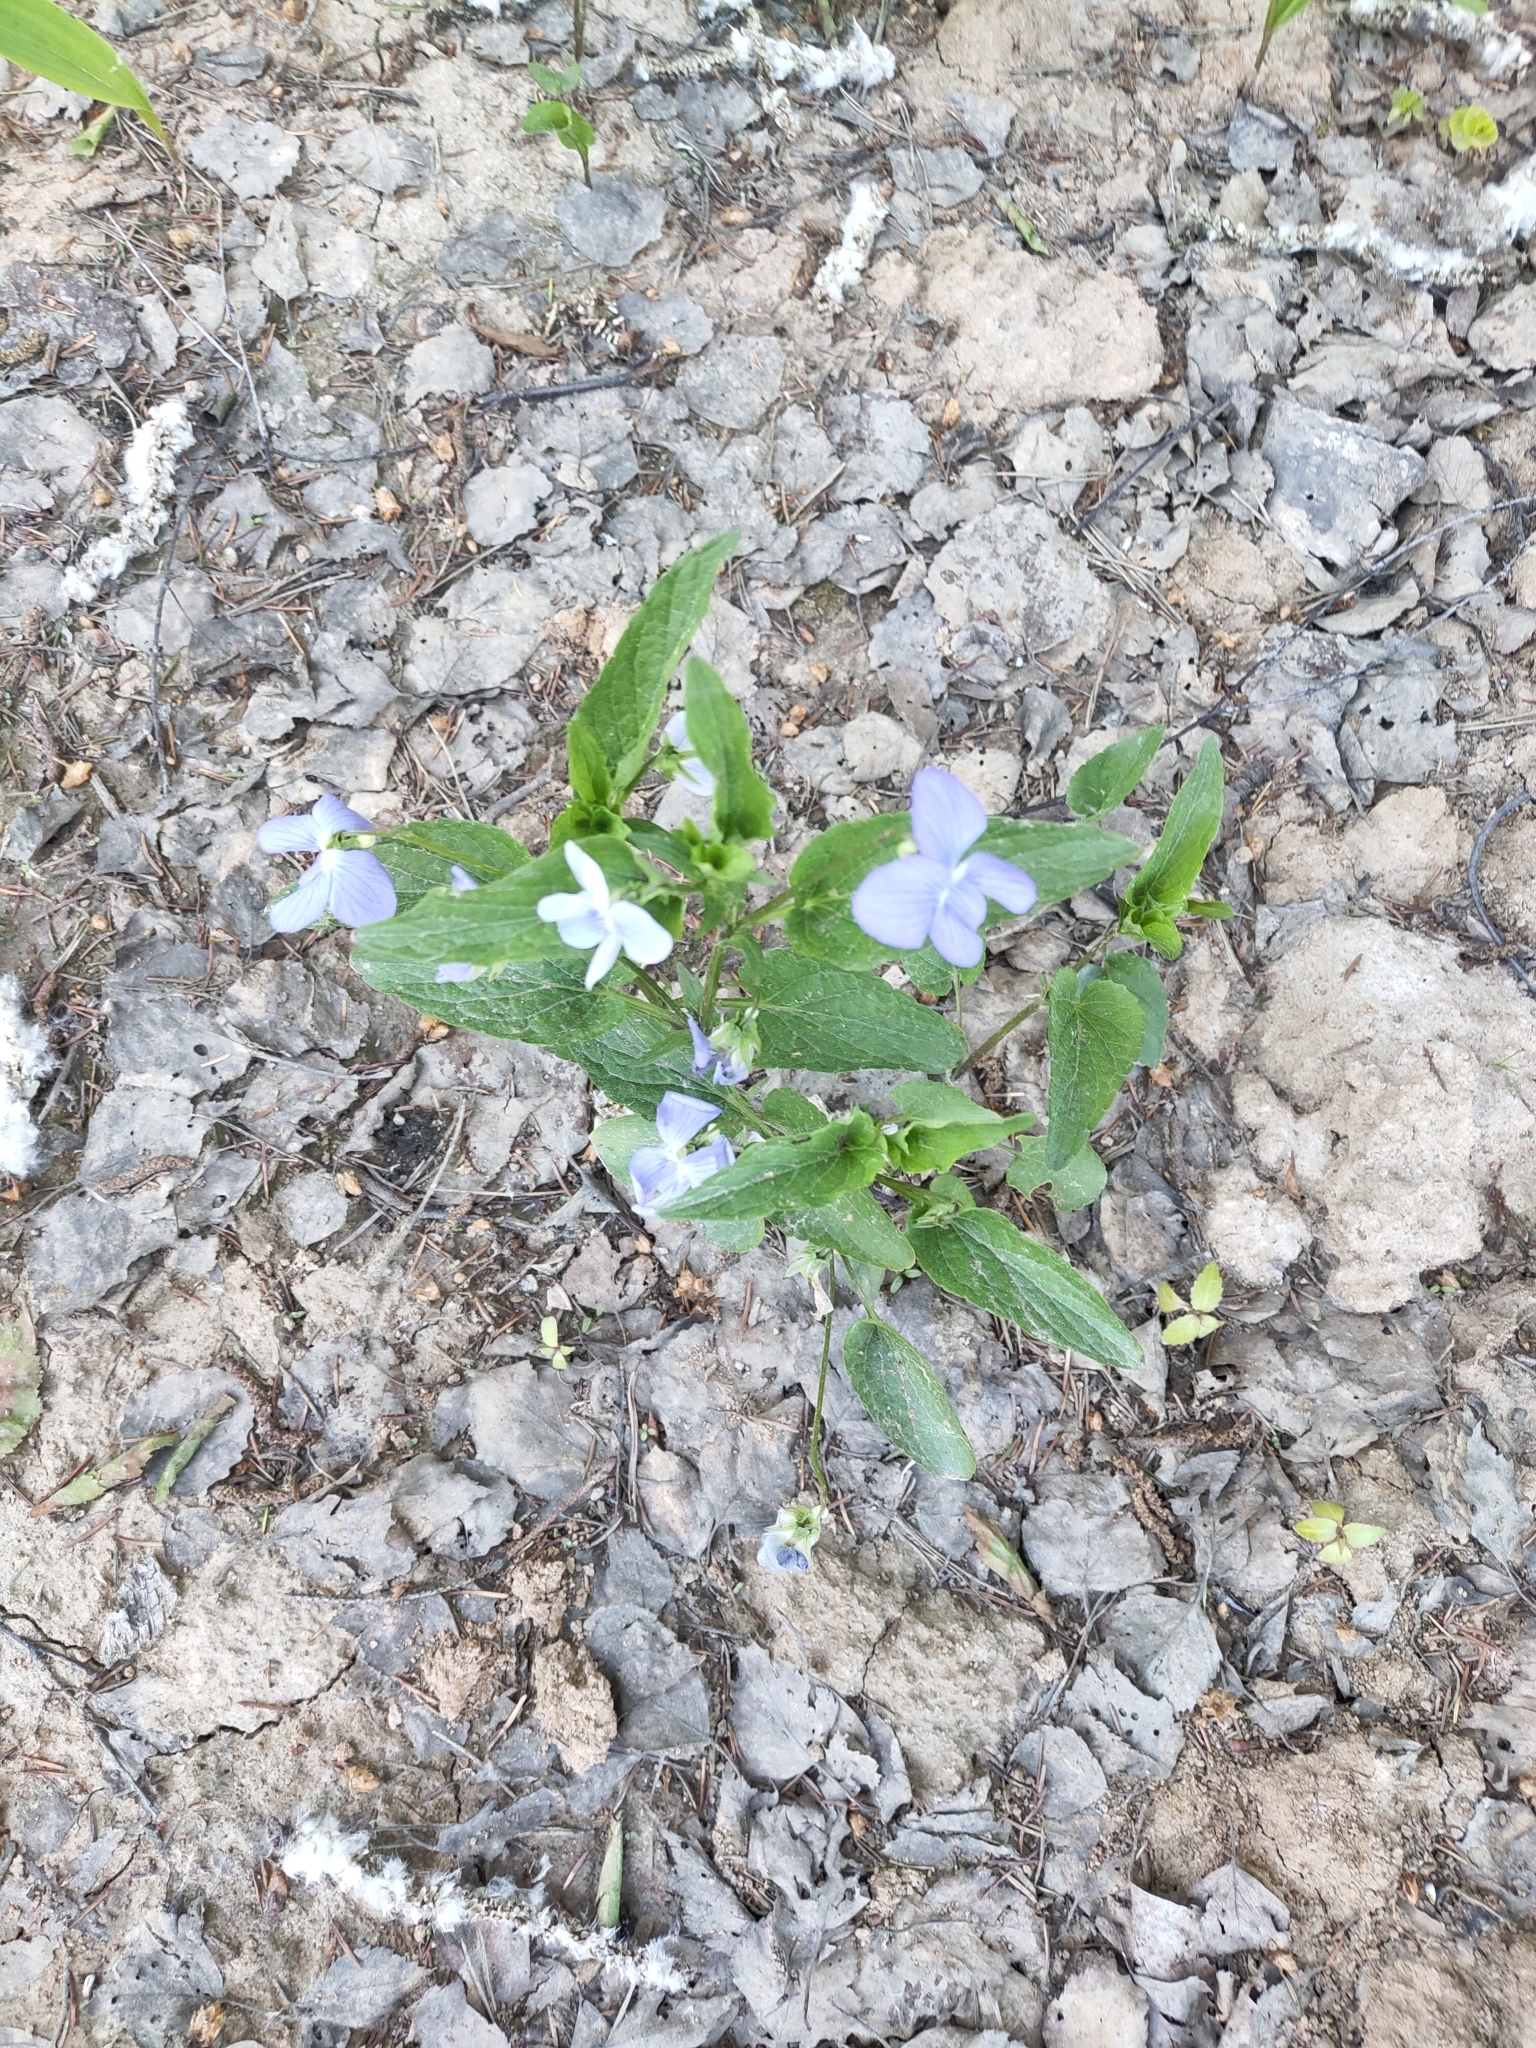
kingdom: Plantae
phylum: Tracheophyta
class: Magnoliopsida
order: Malpighiales
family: Violaceae
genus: Viola
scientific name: Viola canina
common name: Heath dog-violet
